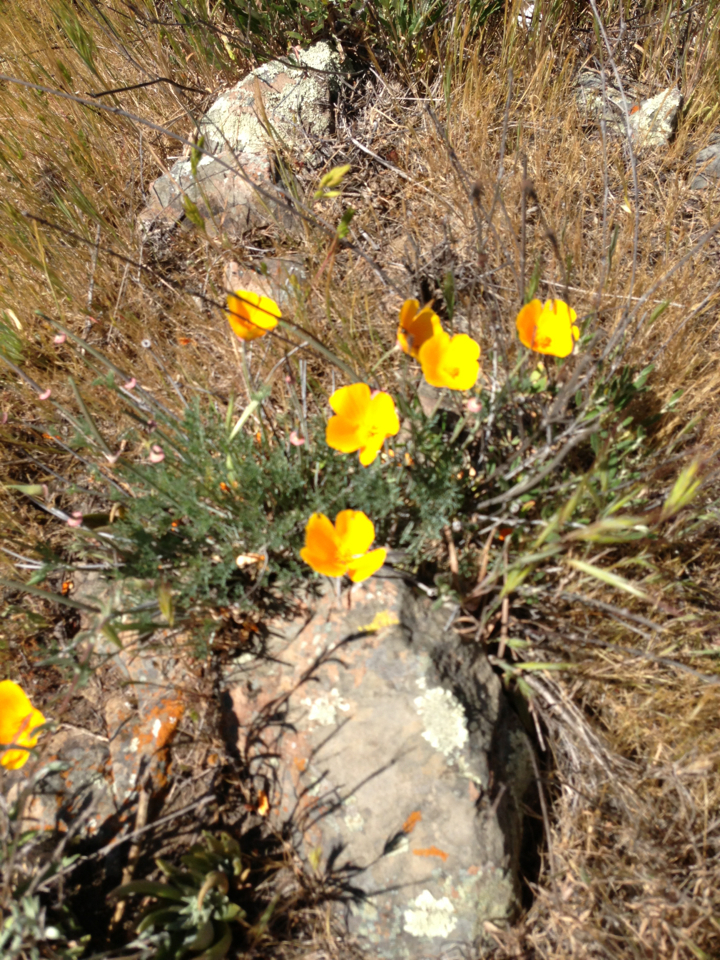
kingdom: Plantae
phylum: Tracheophyta
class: Magnoliopsida
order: Ranunculales
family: Papaveraceae
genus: Eschscholzia
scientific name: Eschscholzia californica
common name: California poppy
